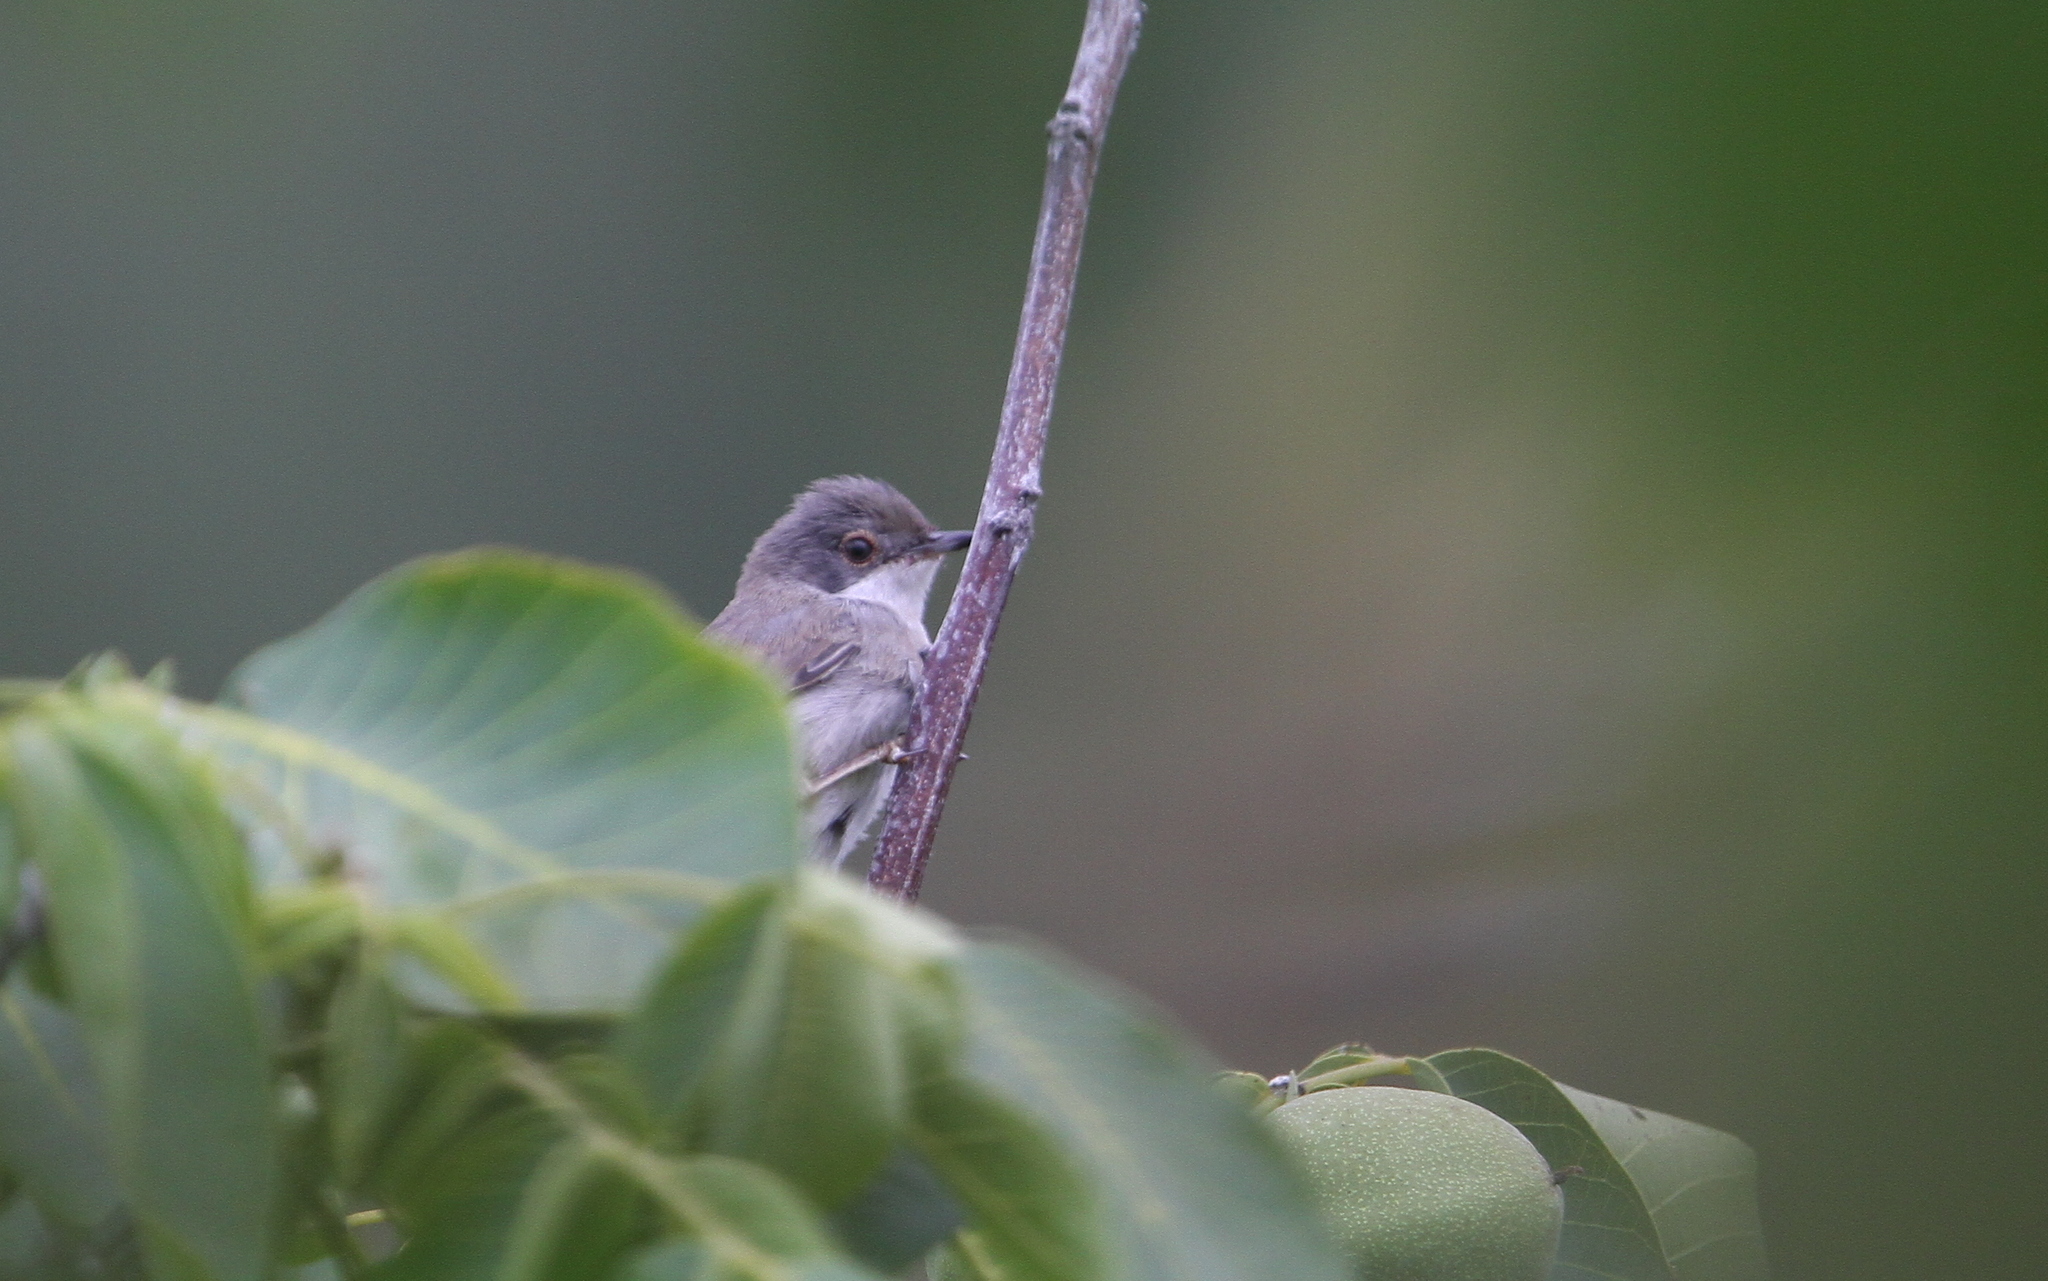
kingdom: Animalia
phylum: Chordata
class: Aves
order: Passeriformes
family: Sylviidae
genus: Curruca
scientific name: Curruca melanocephala
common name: Sardinian warbler
